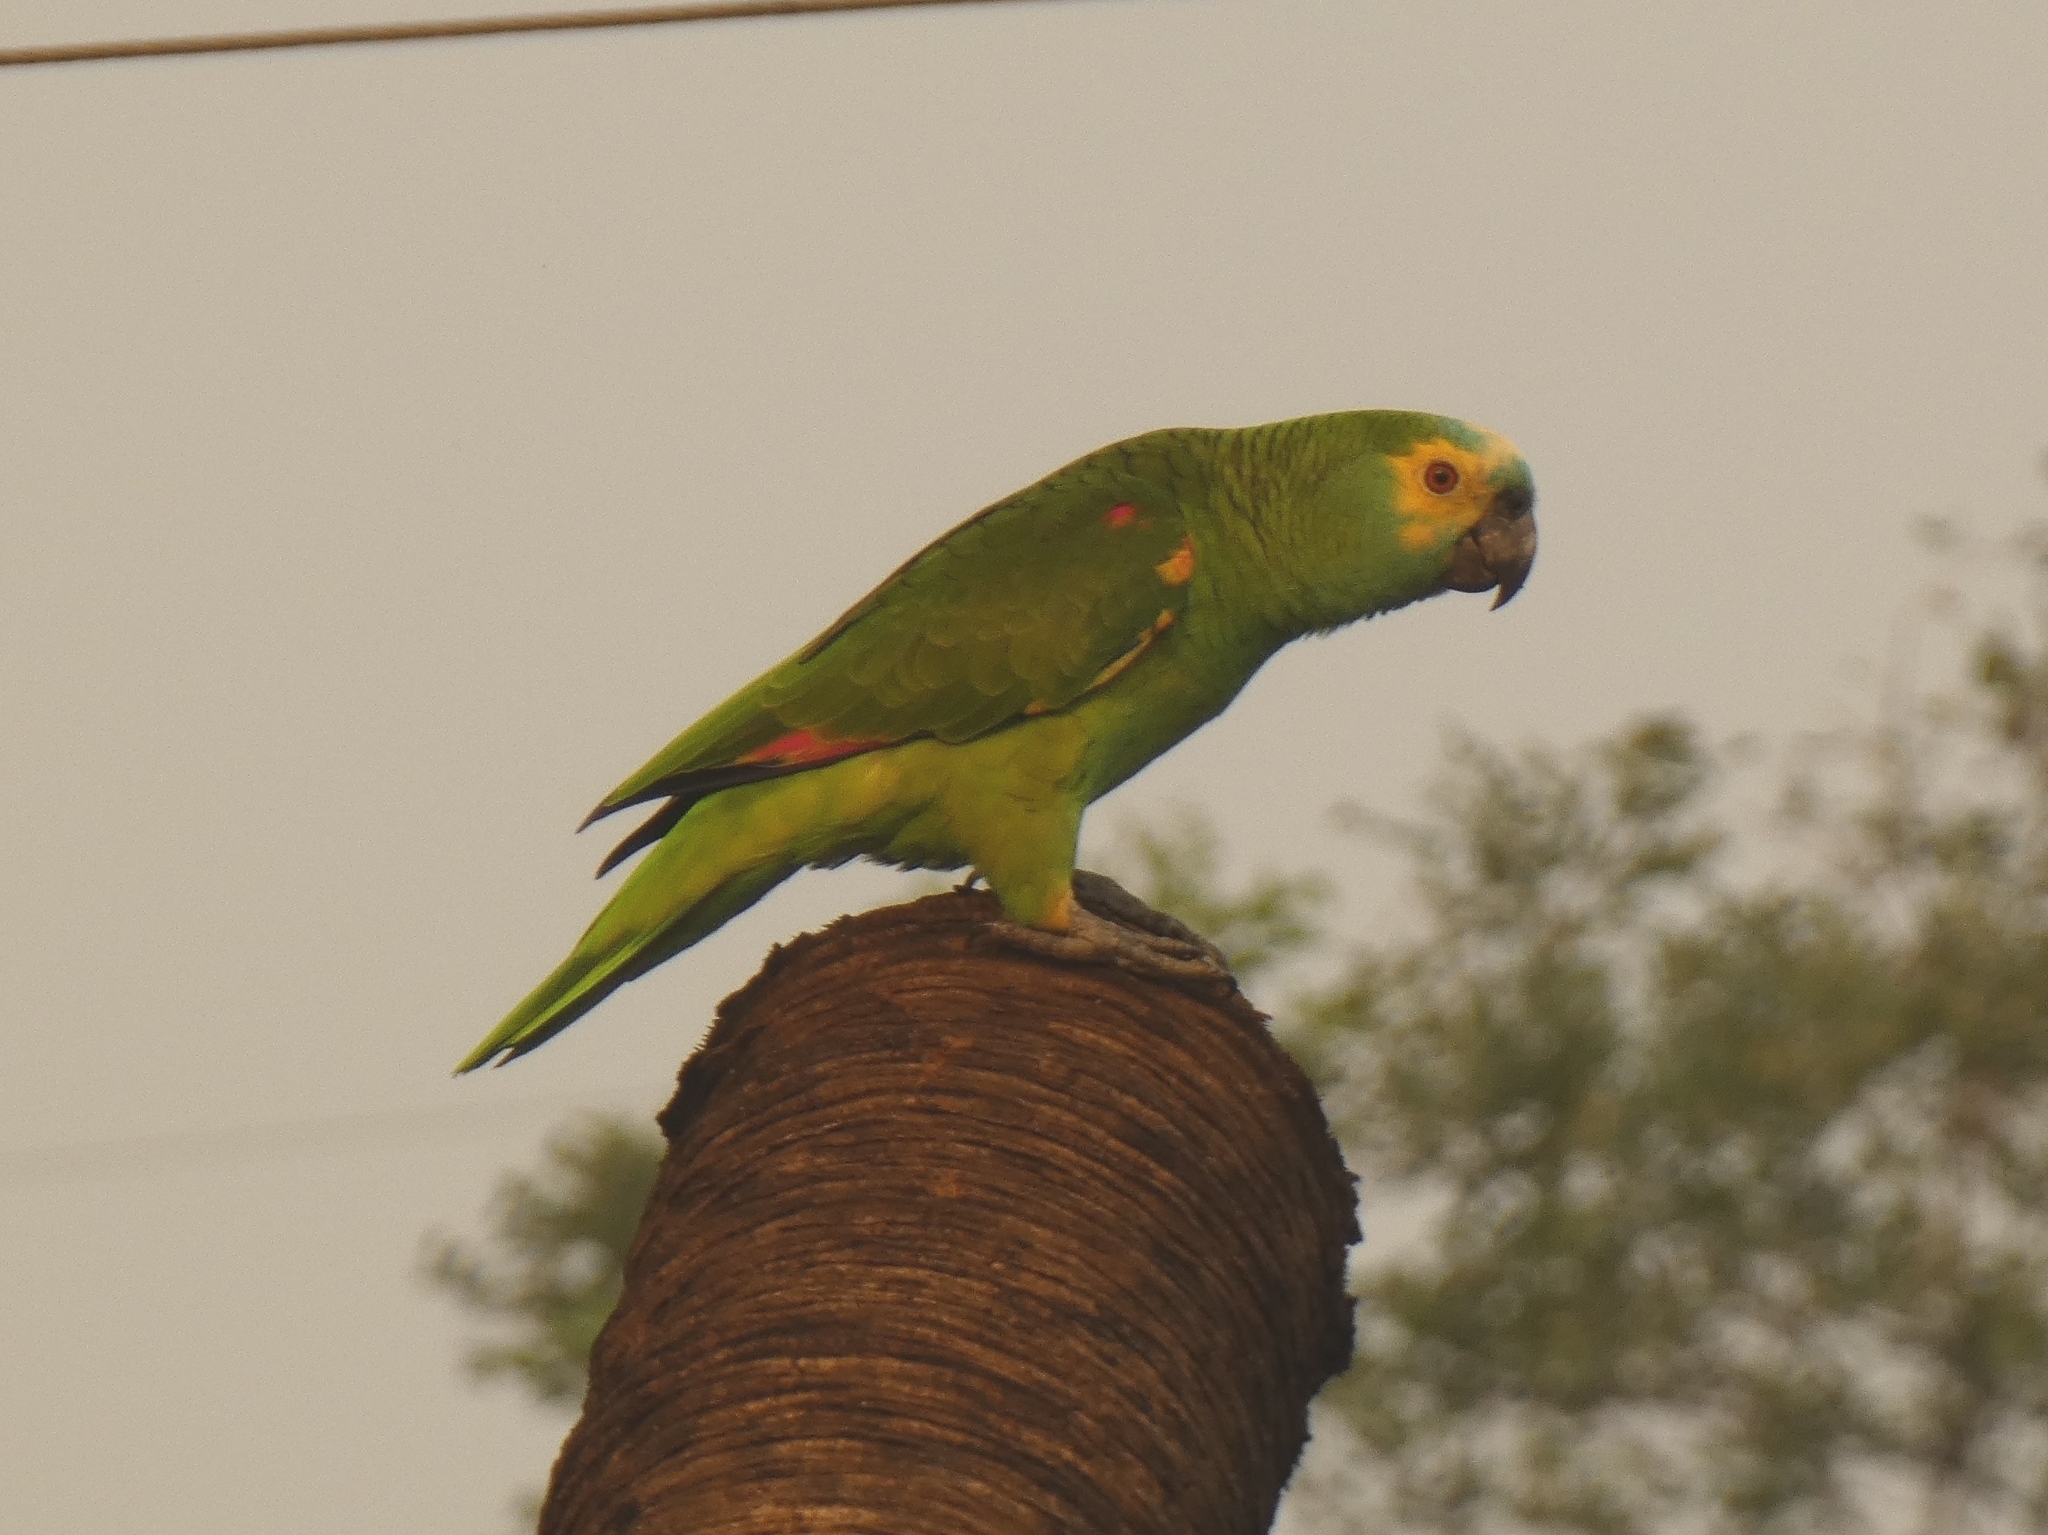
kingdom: Animalia
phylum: Chordata
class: Aves
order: Psittaciformes
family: Psittacidae
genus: Amazona
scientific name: Amazona aestiva
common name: Turquoise-fronted amazon
